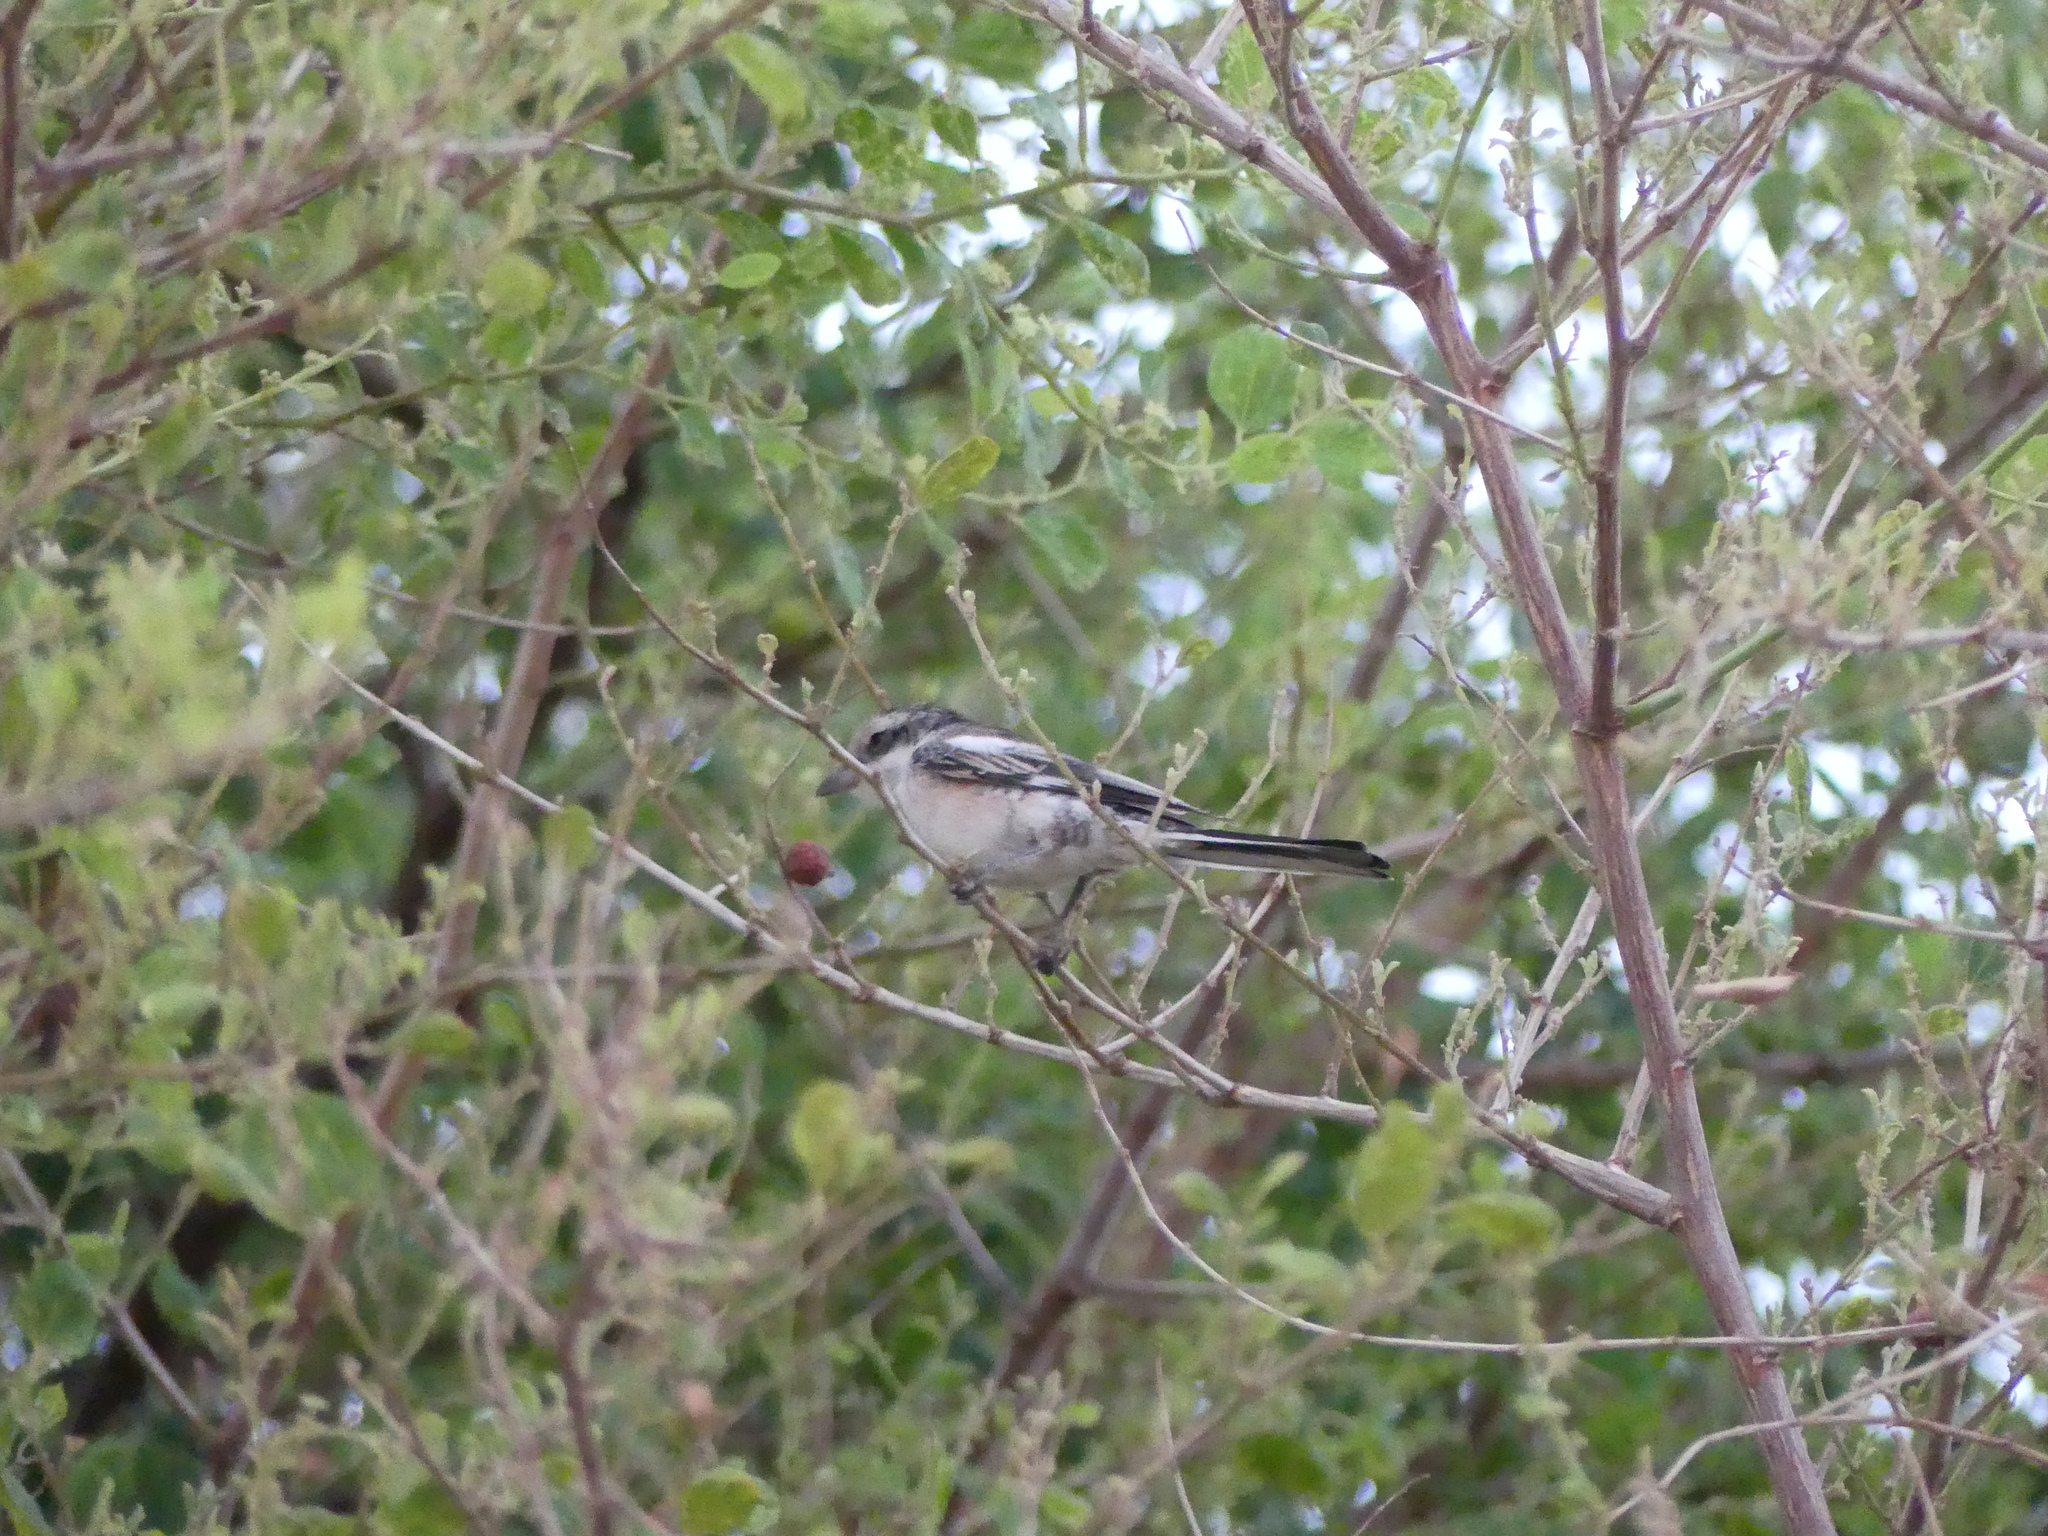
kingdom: Animalia
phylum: Chordata
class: Aves
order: Passeriformes
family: Laniidae
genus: Lanius
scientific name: Lanius nubicus
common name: Masked shrike
